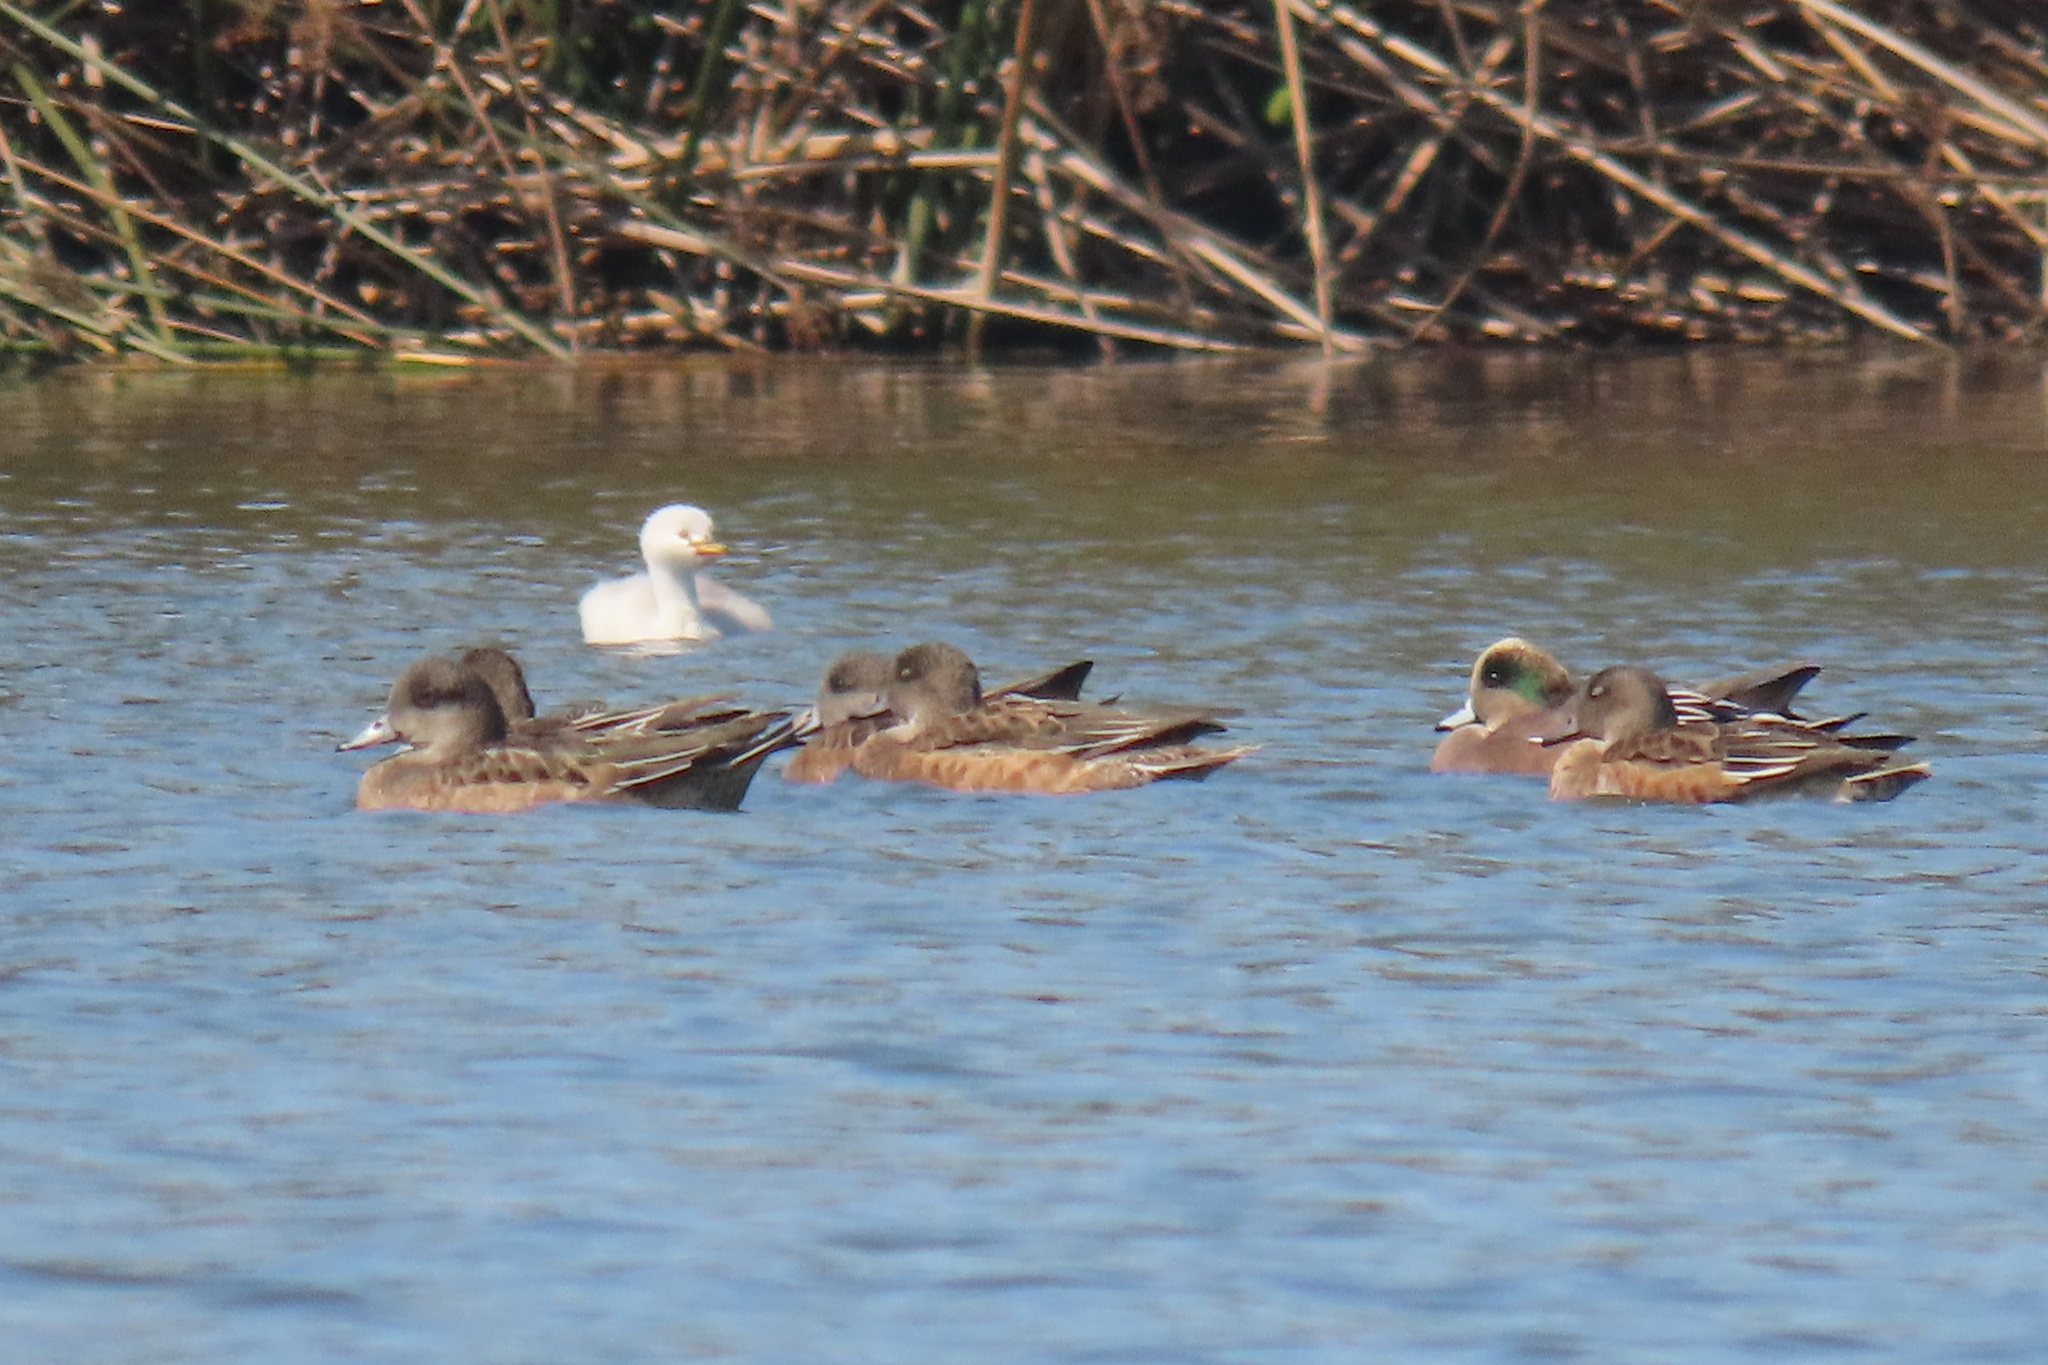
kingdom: Animalia
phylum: Chordata
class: Aves
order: Anseriformes
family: Anatidae
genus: Mareca
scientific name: Mareca americana
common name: American wigeon
